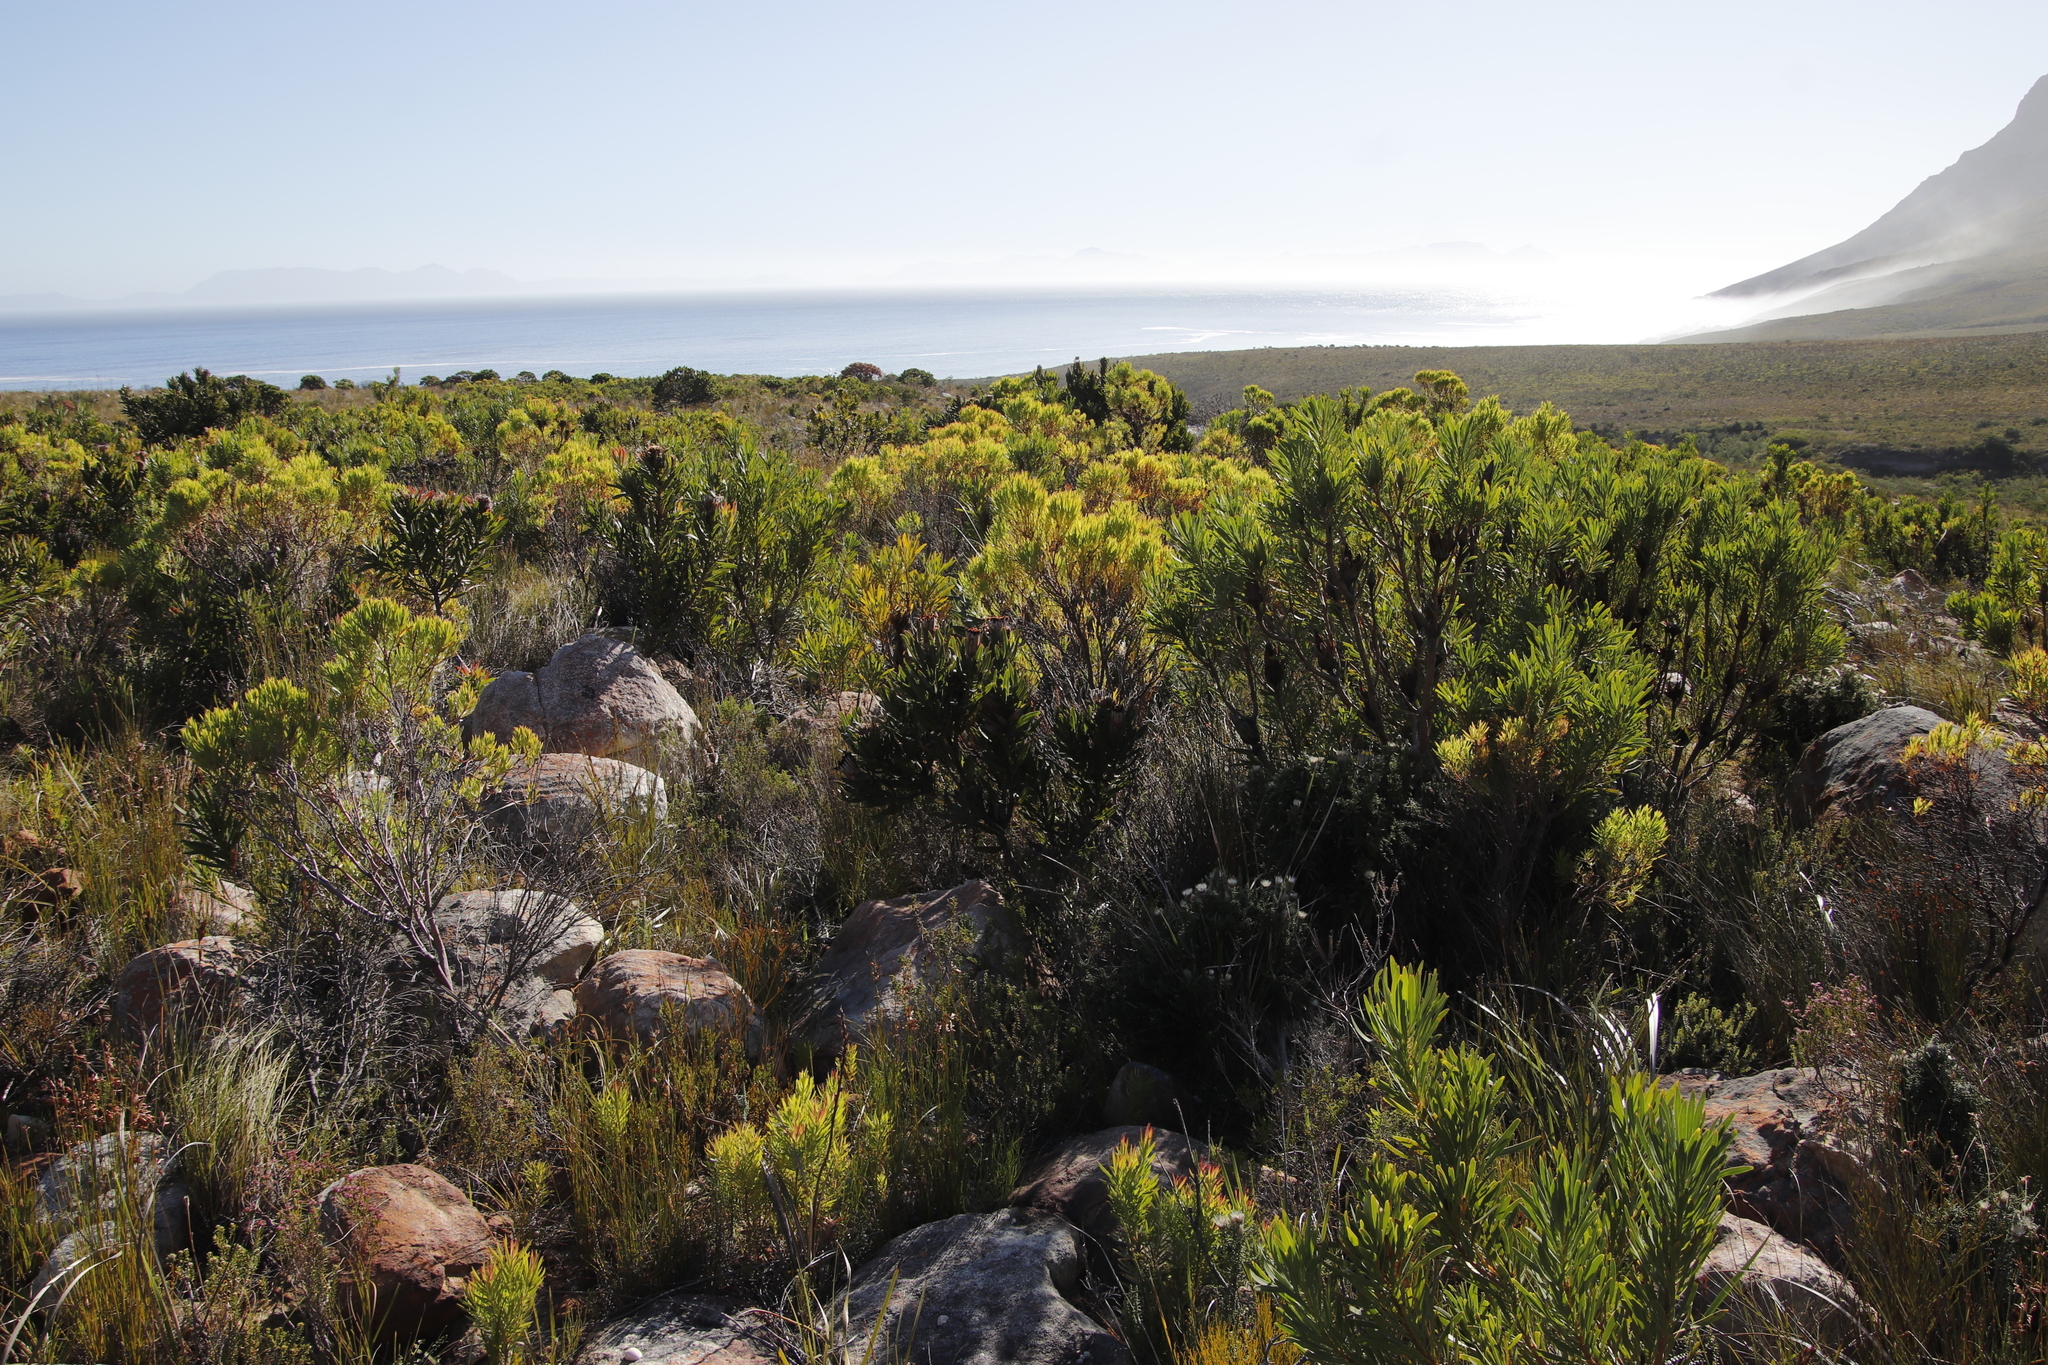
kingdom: Plantae
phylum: Tracheophyta
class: Magnoliopsida
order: Proteales
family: Proteaceae
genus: Protea
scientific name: Protea repens
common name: Sugarbush
